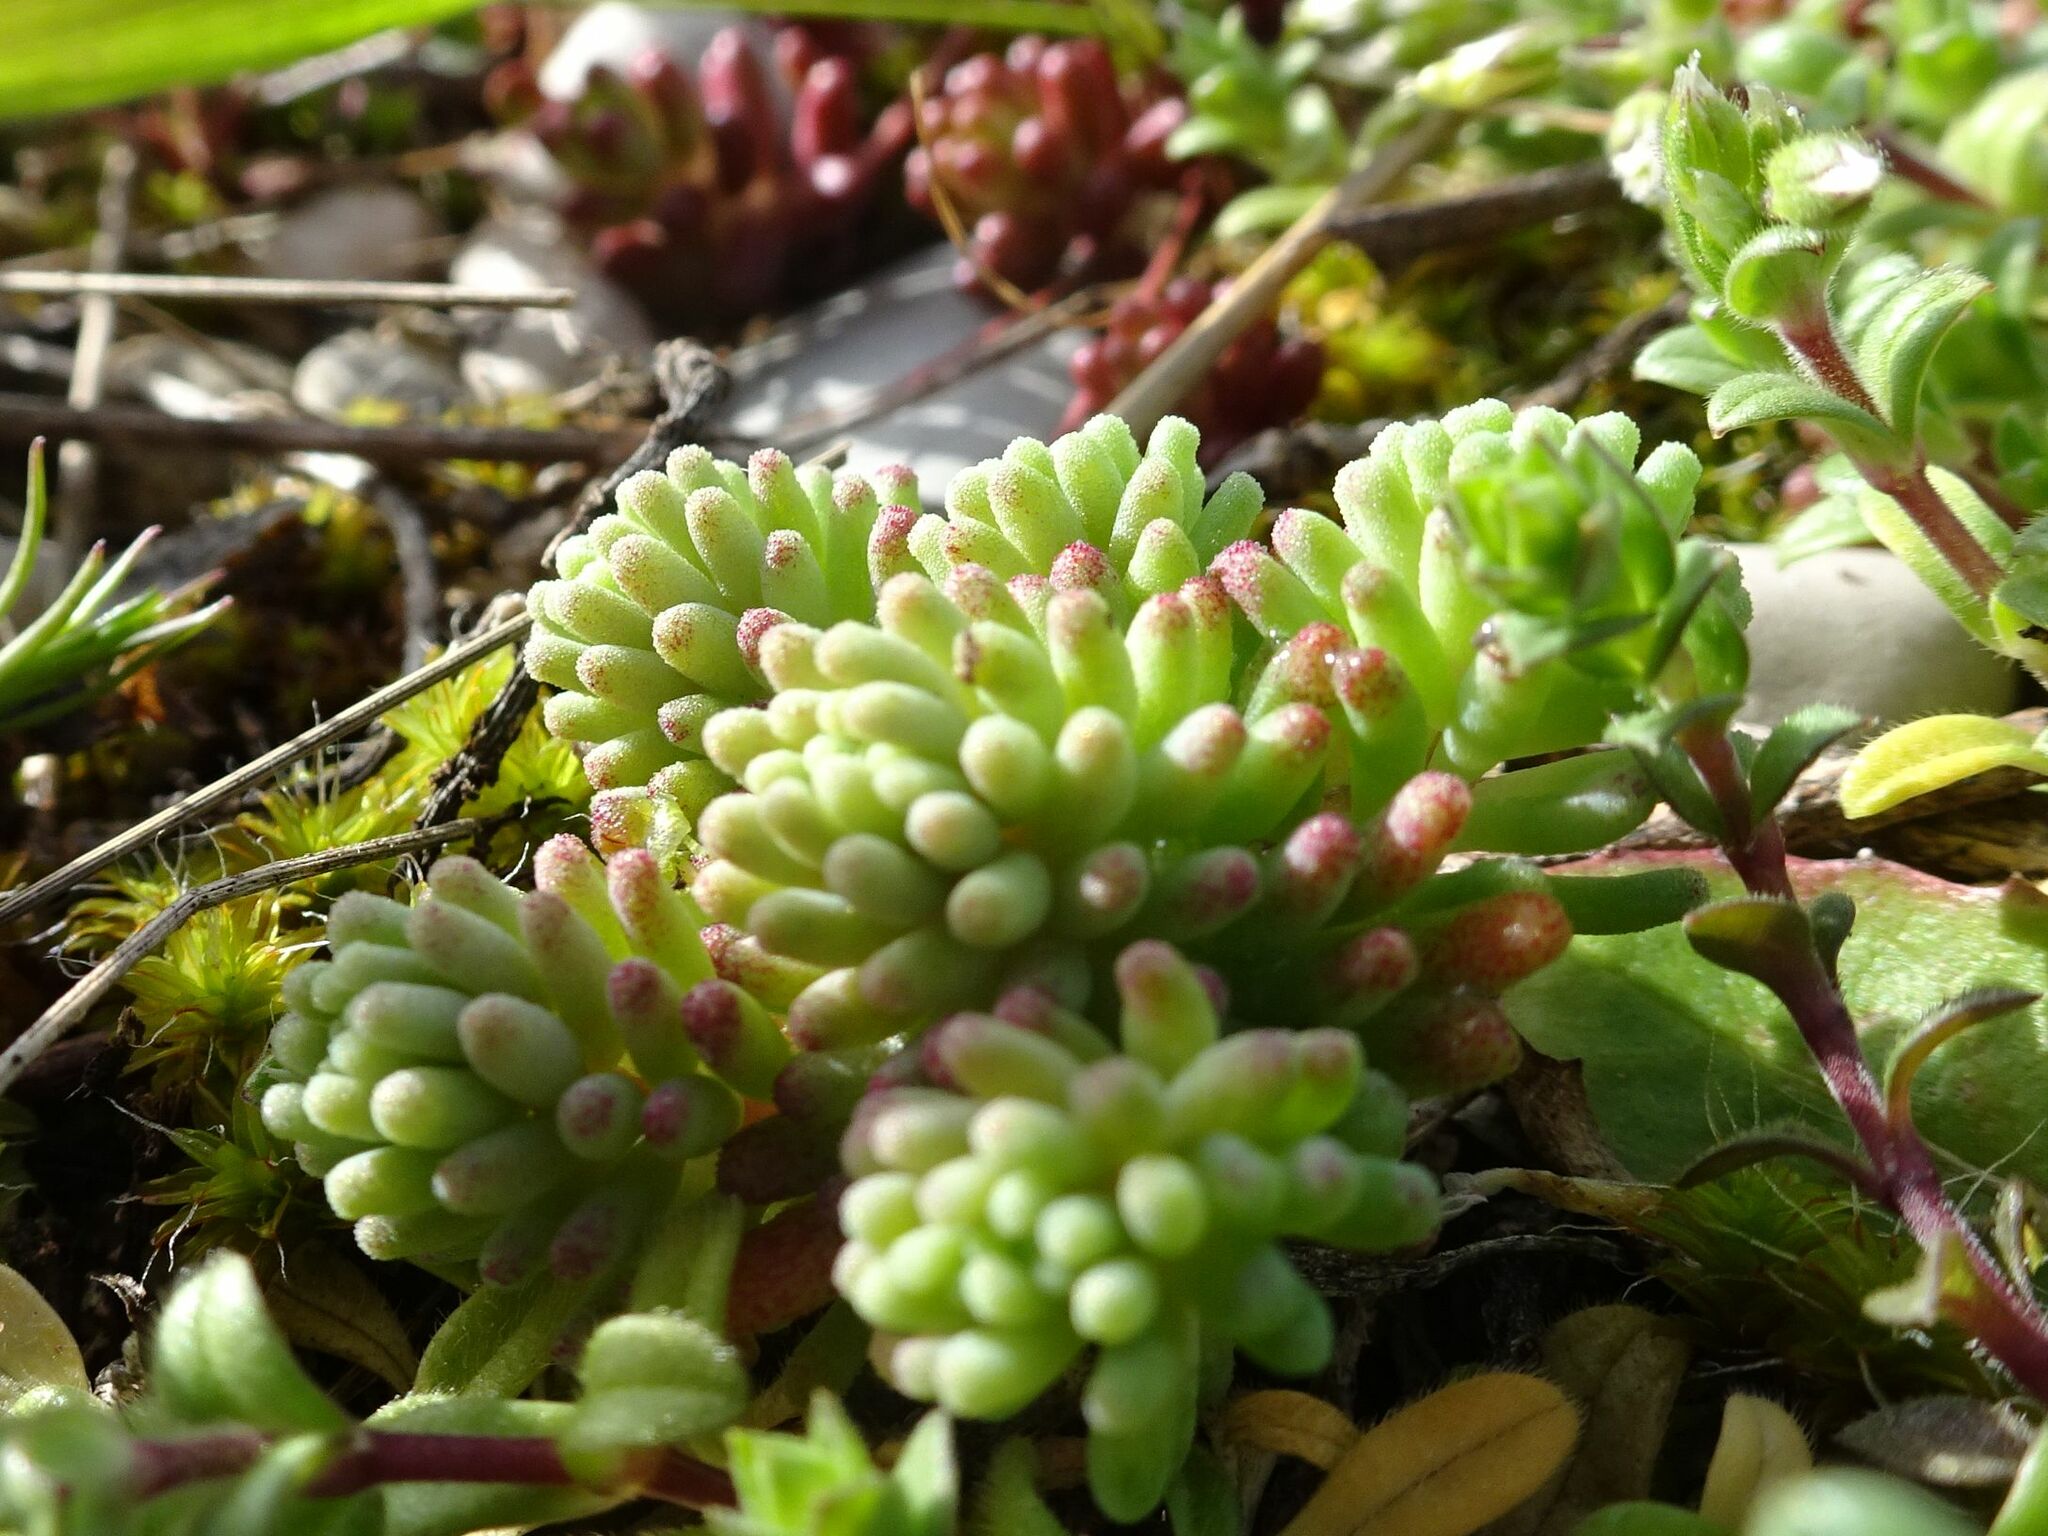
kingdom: Plantae
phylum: Tracheophyta
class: Magnoliopsida
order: Saxifragales
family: Crassulaceae
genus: Sedum
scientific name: Sedum rubens
